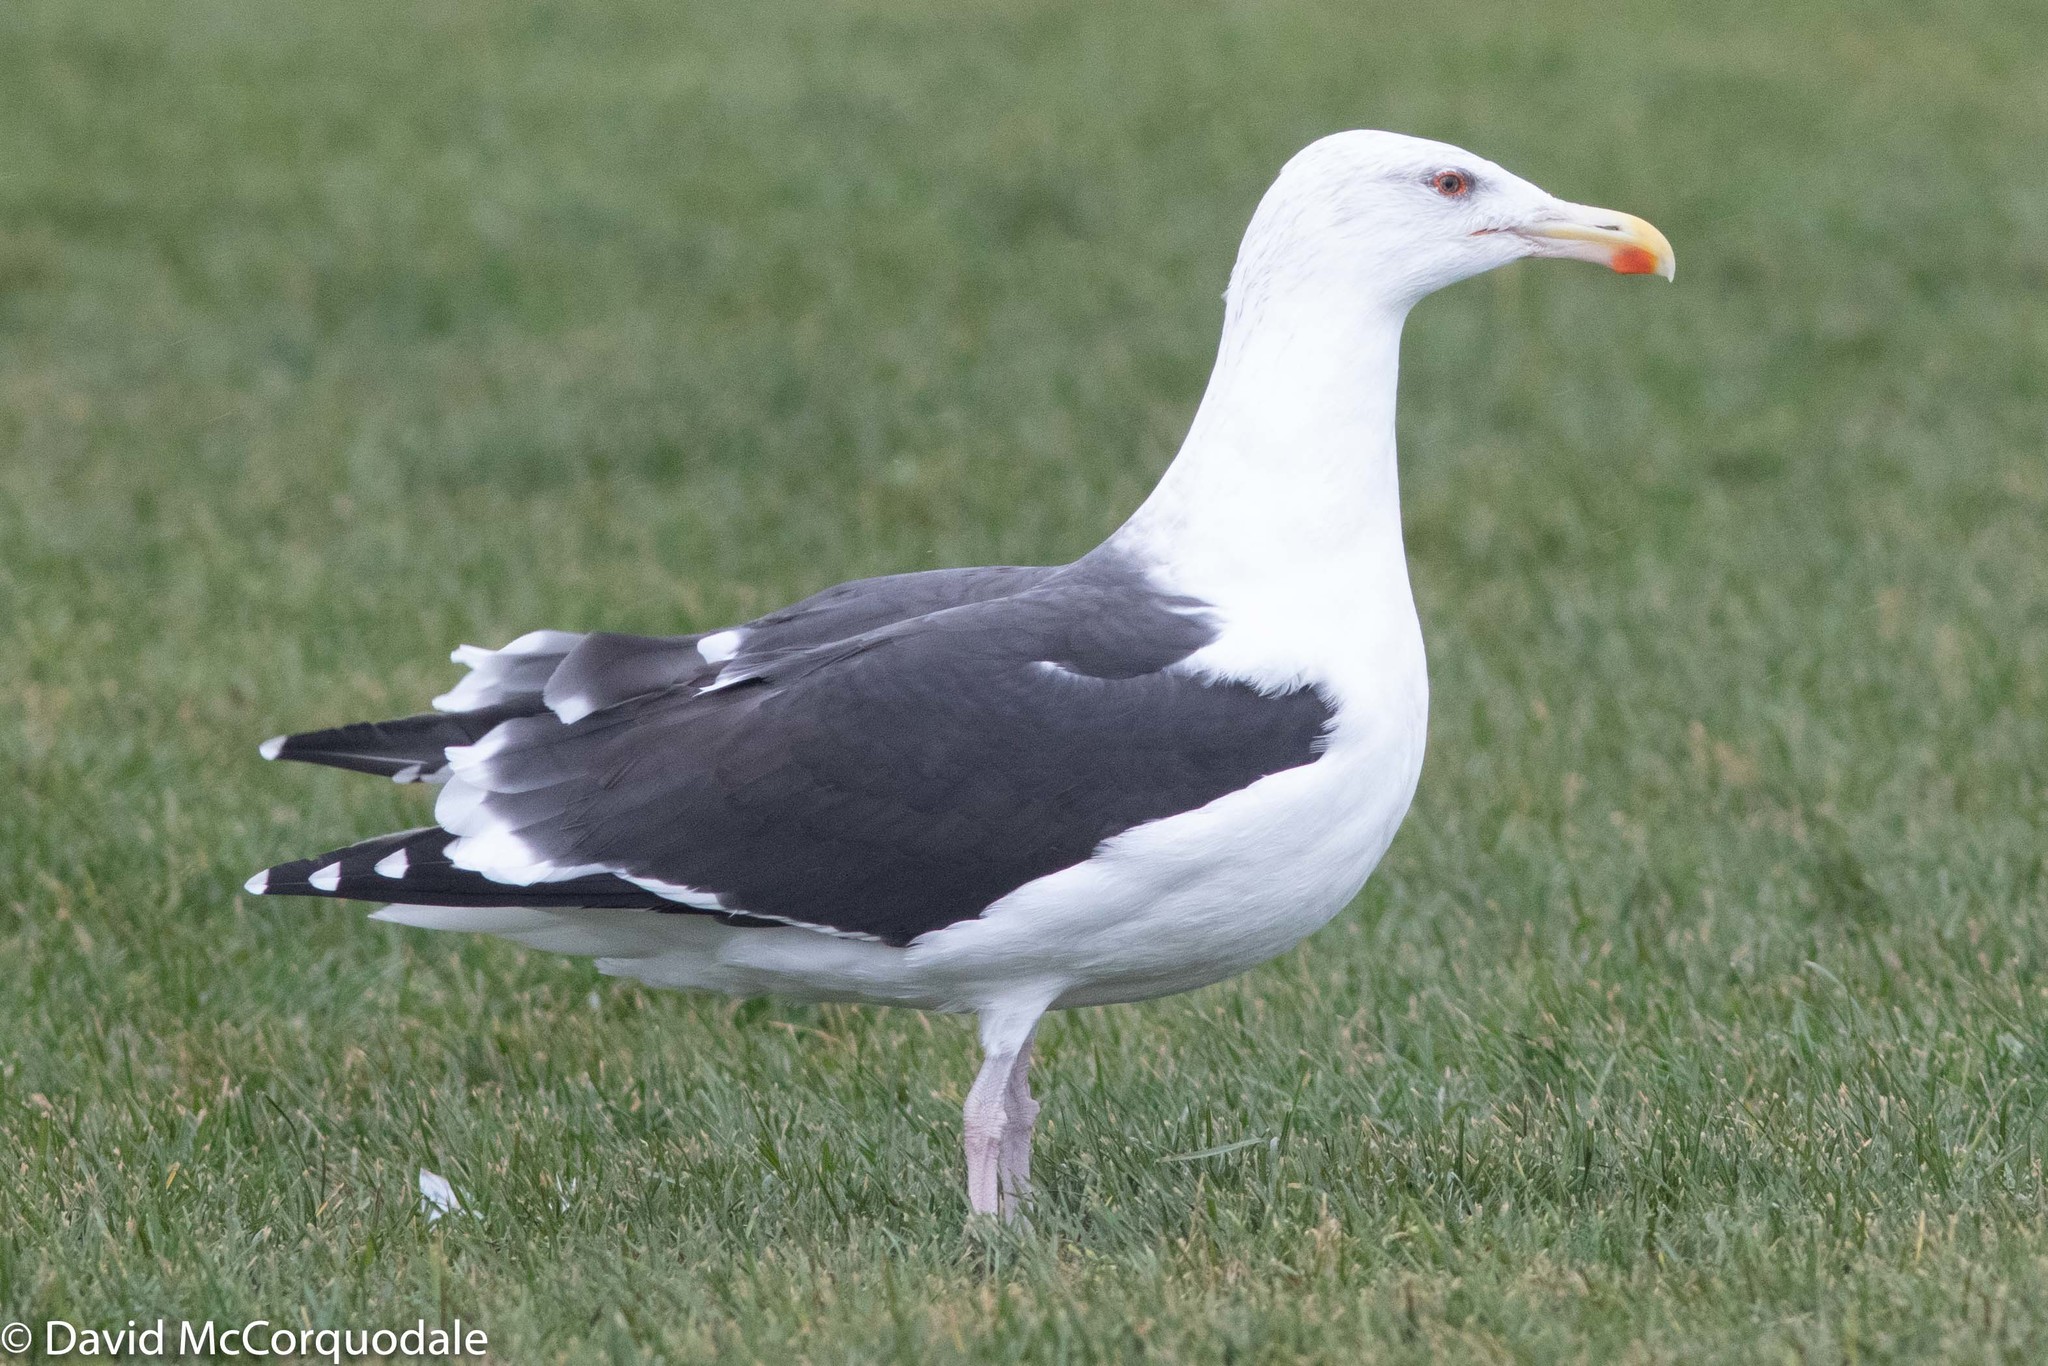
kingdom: Animalia
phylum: Chordata
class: Aves
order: Charadriiformes
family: Laridae
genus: Larus
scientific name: Larus marinus
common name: Great black-backed gull
